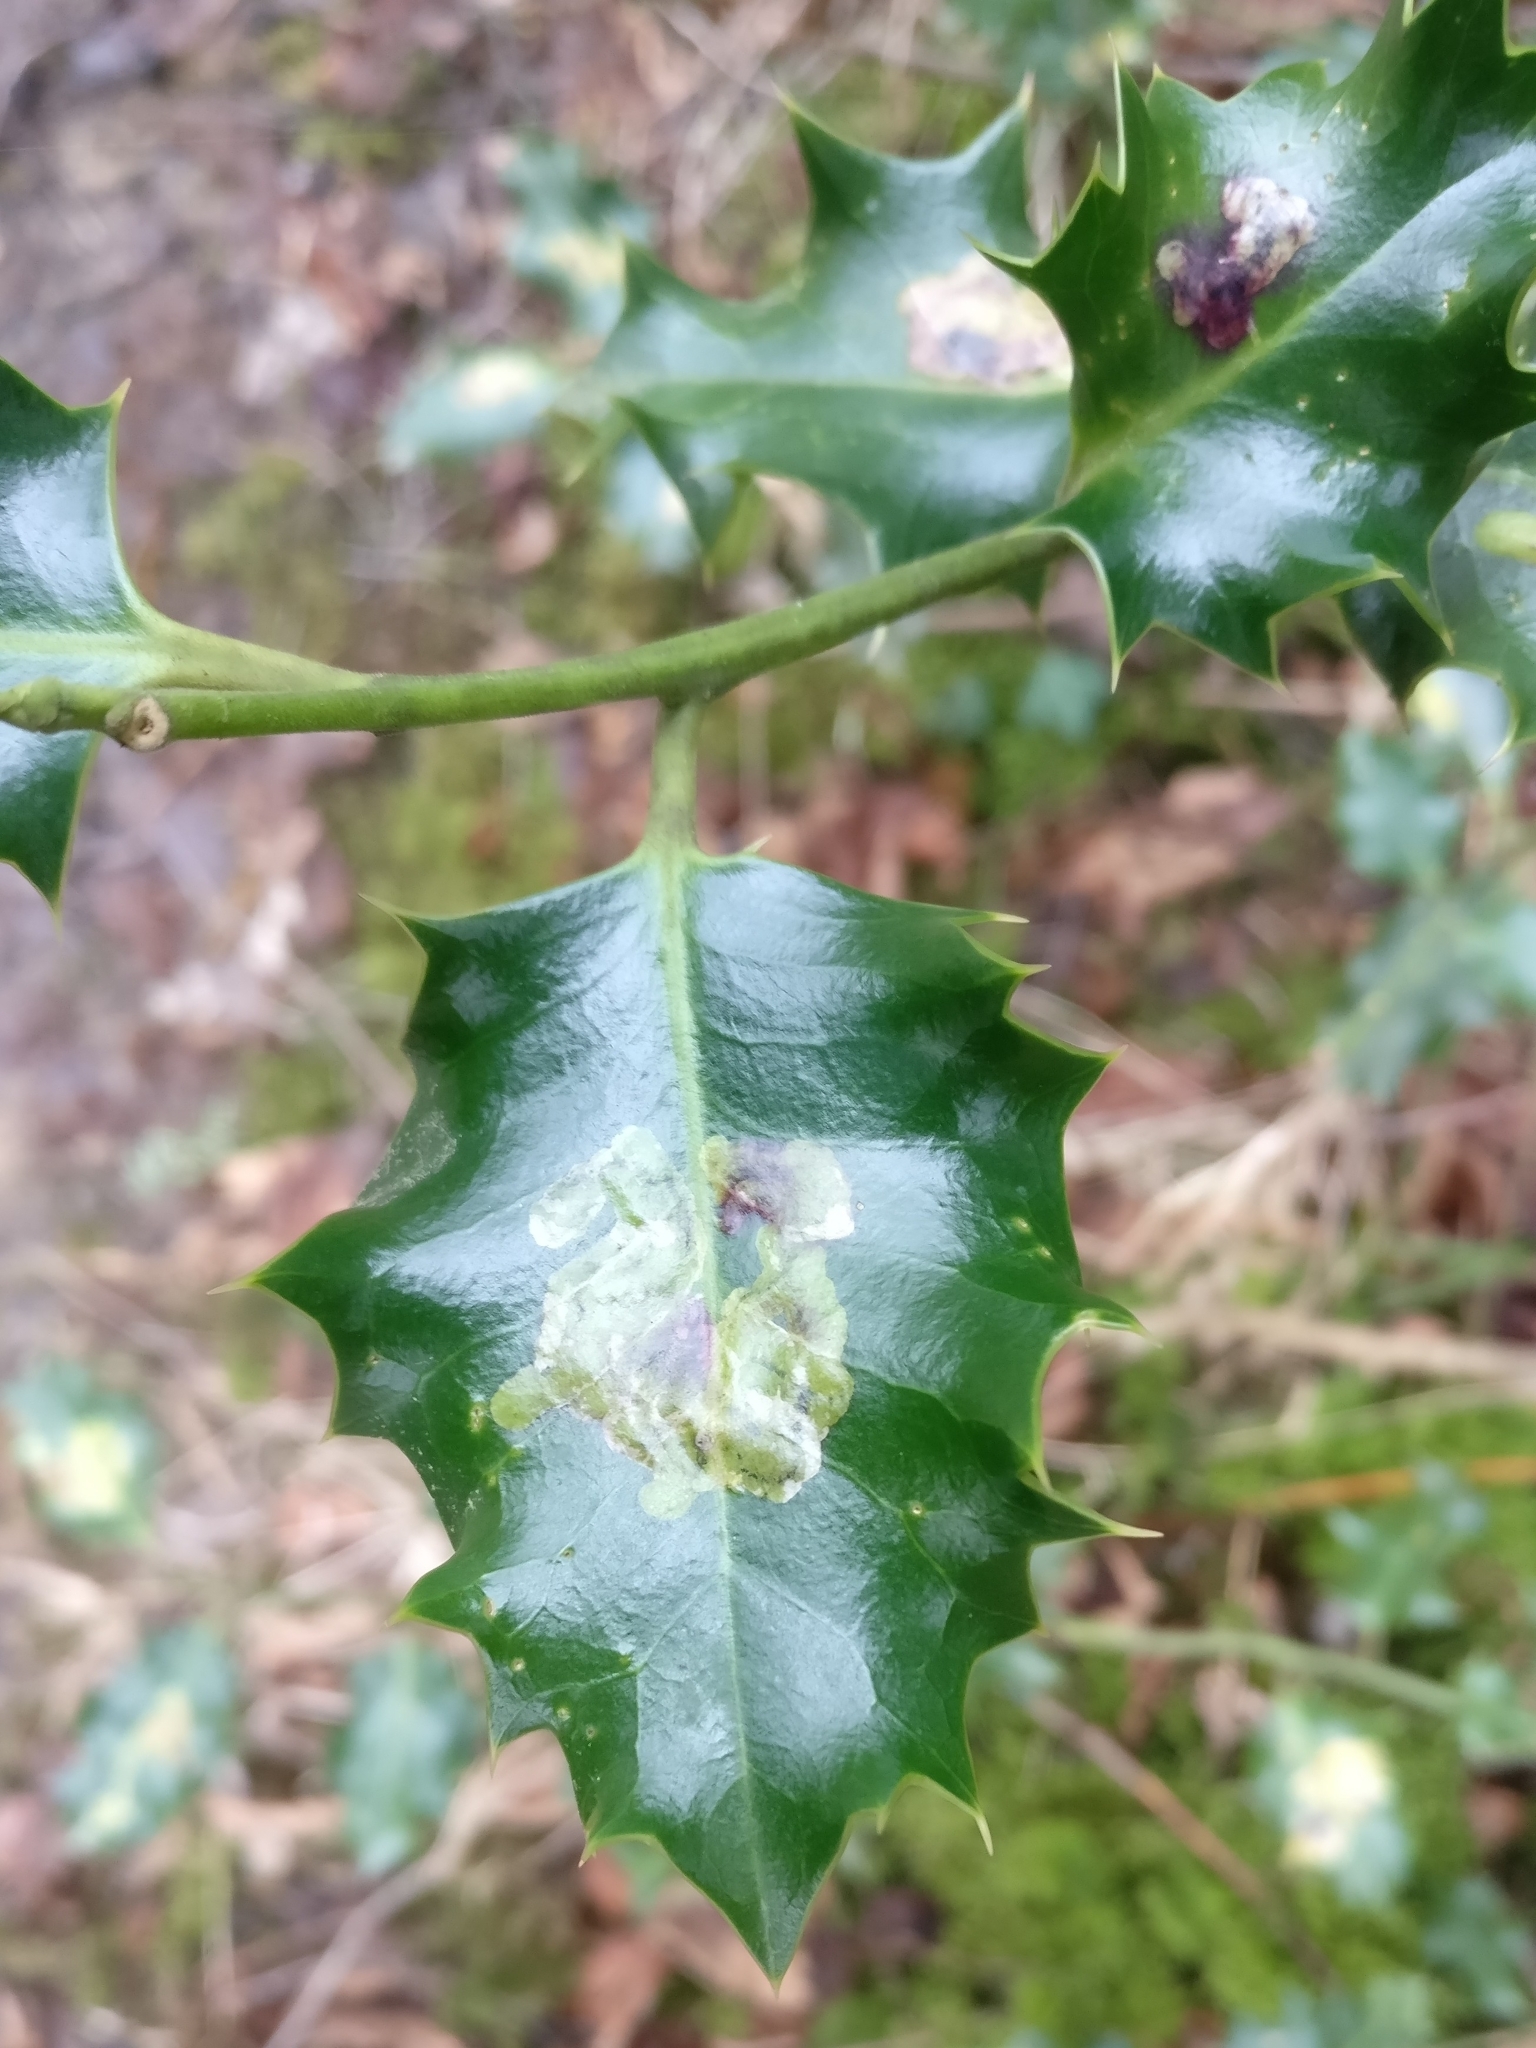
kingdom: Animalia
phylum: Arthropoda
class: Insecta
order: Diptera
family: Agromyzidae
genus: Phytomyza
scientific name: Phytomyza ilicis
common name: Holly leafminer
